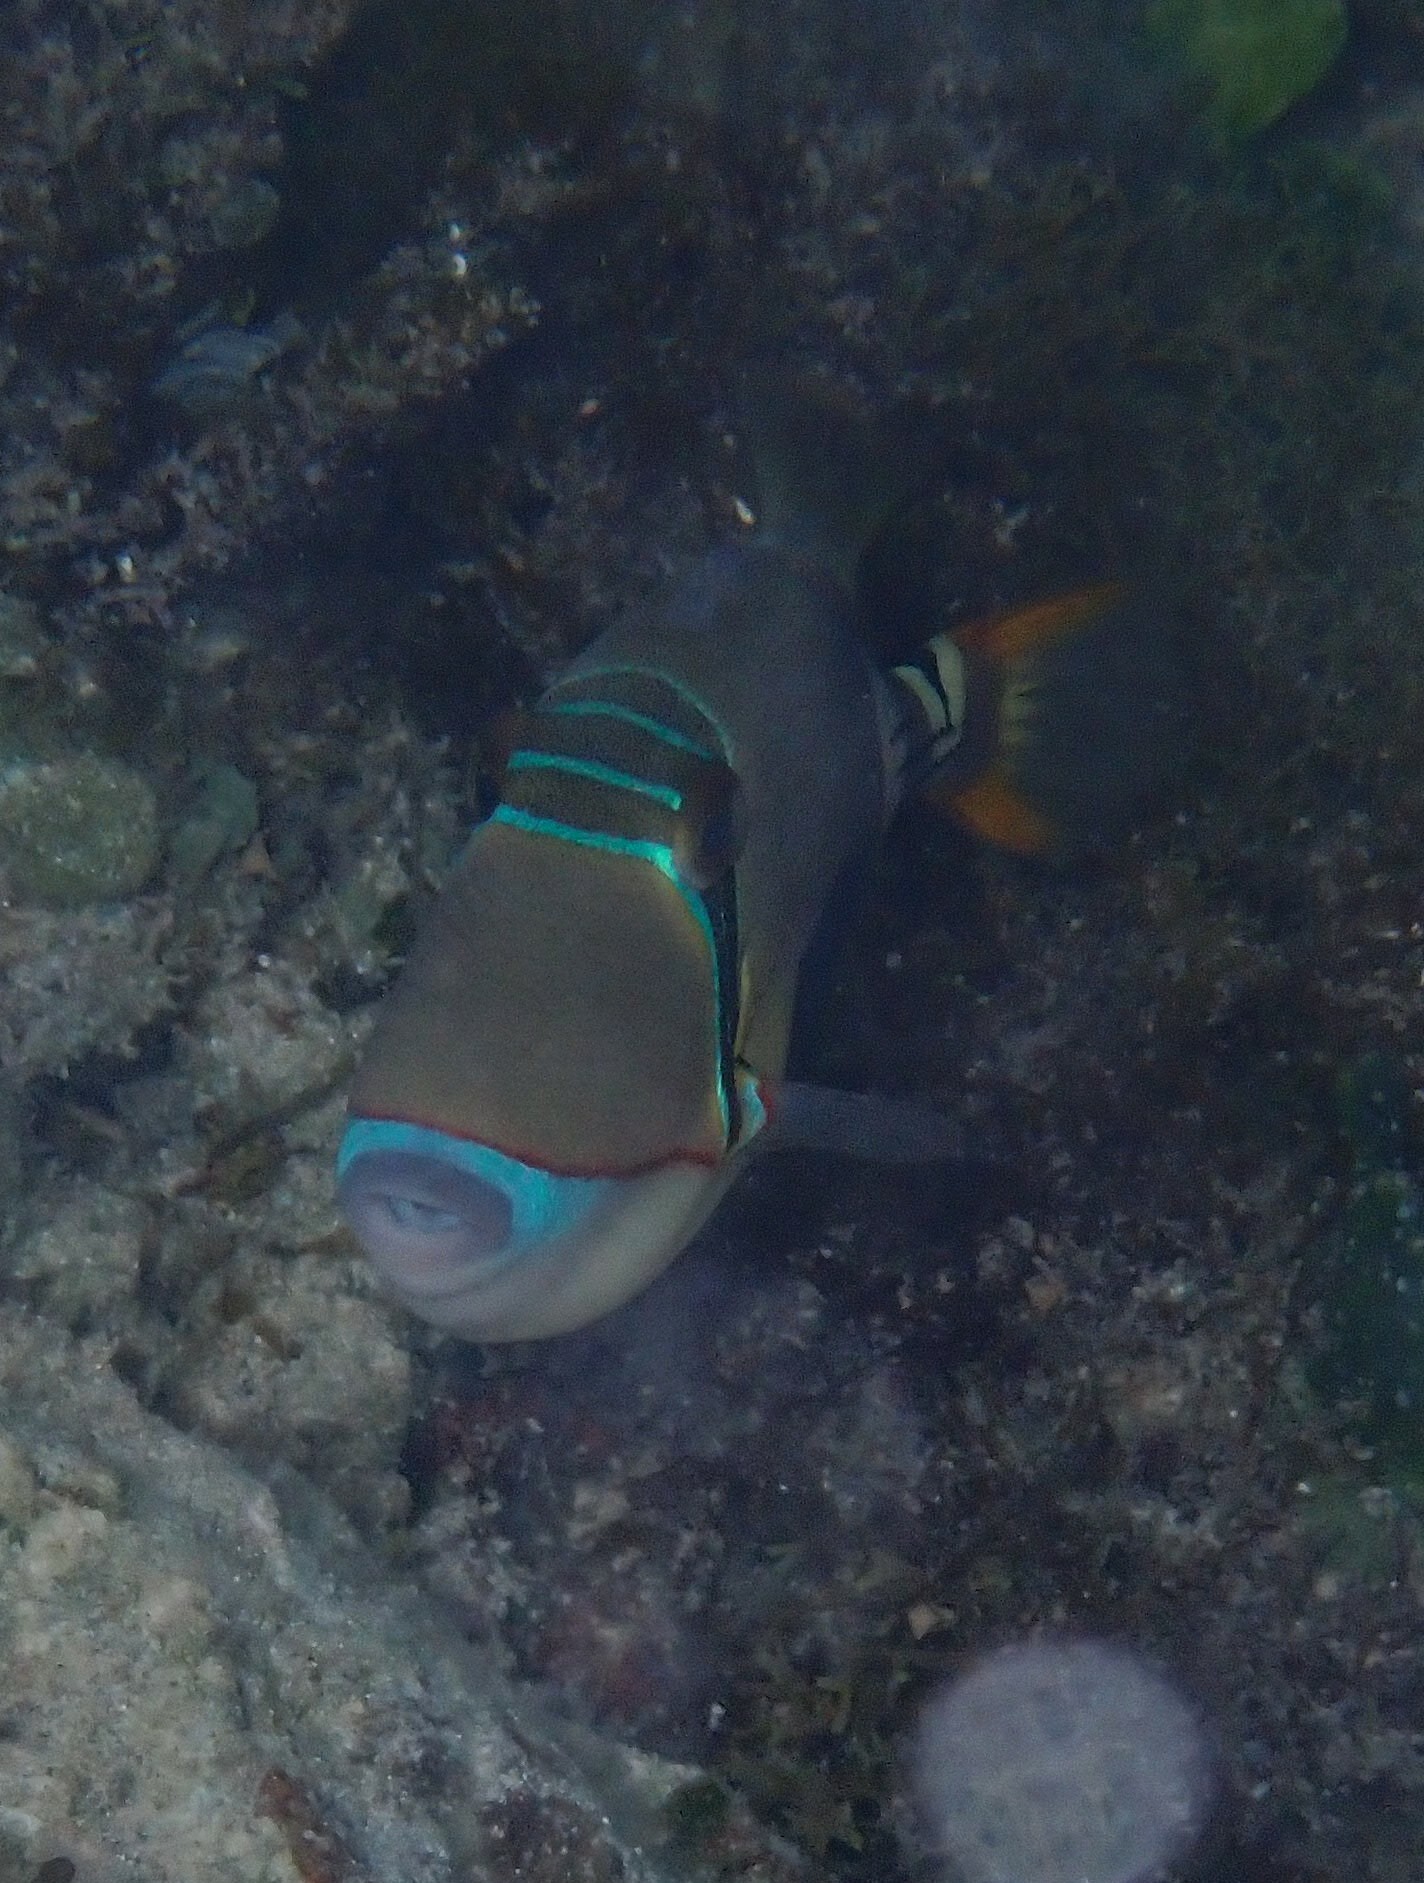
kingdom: Animalia
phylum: Chordata
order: Tetraodontiformes
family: Balistidae
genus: Rhinecanthus
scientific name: Rhinecanthus verrucosus
